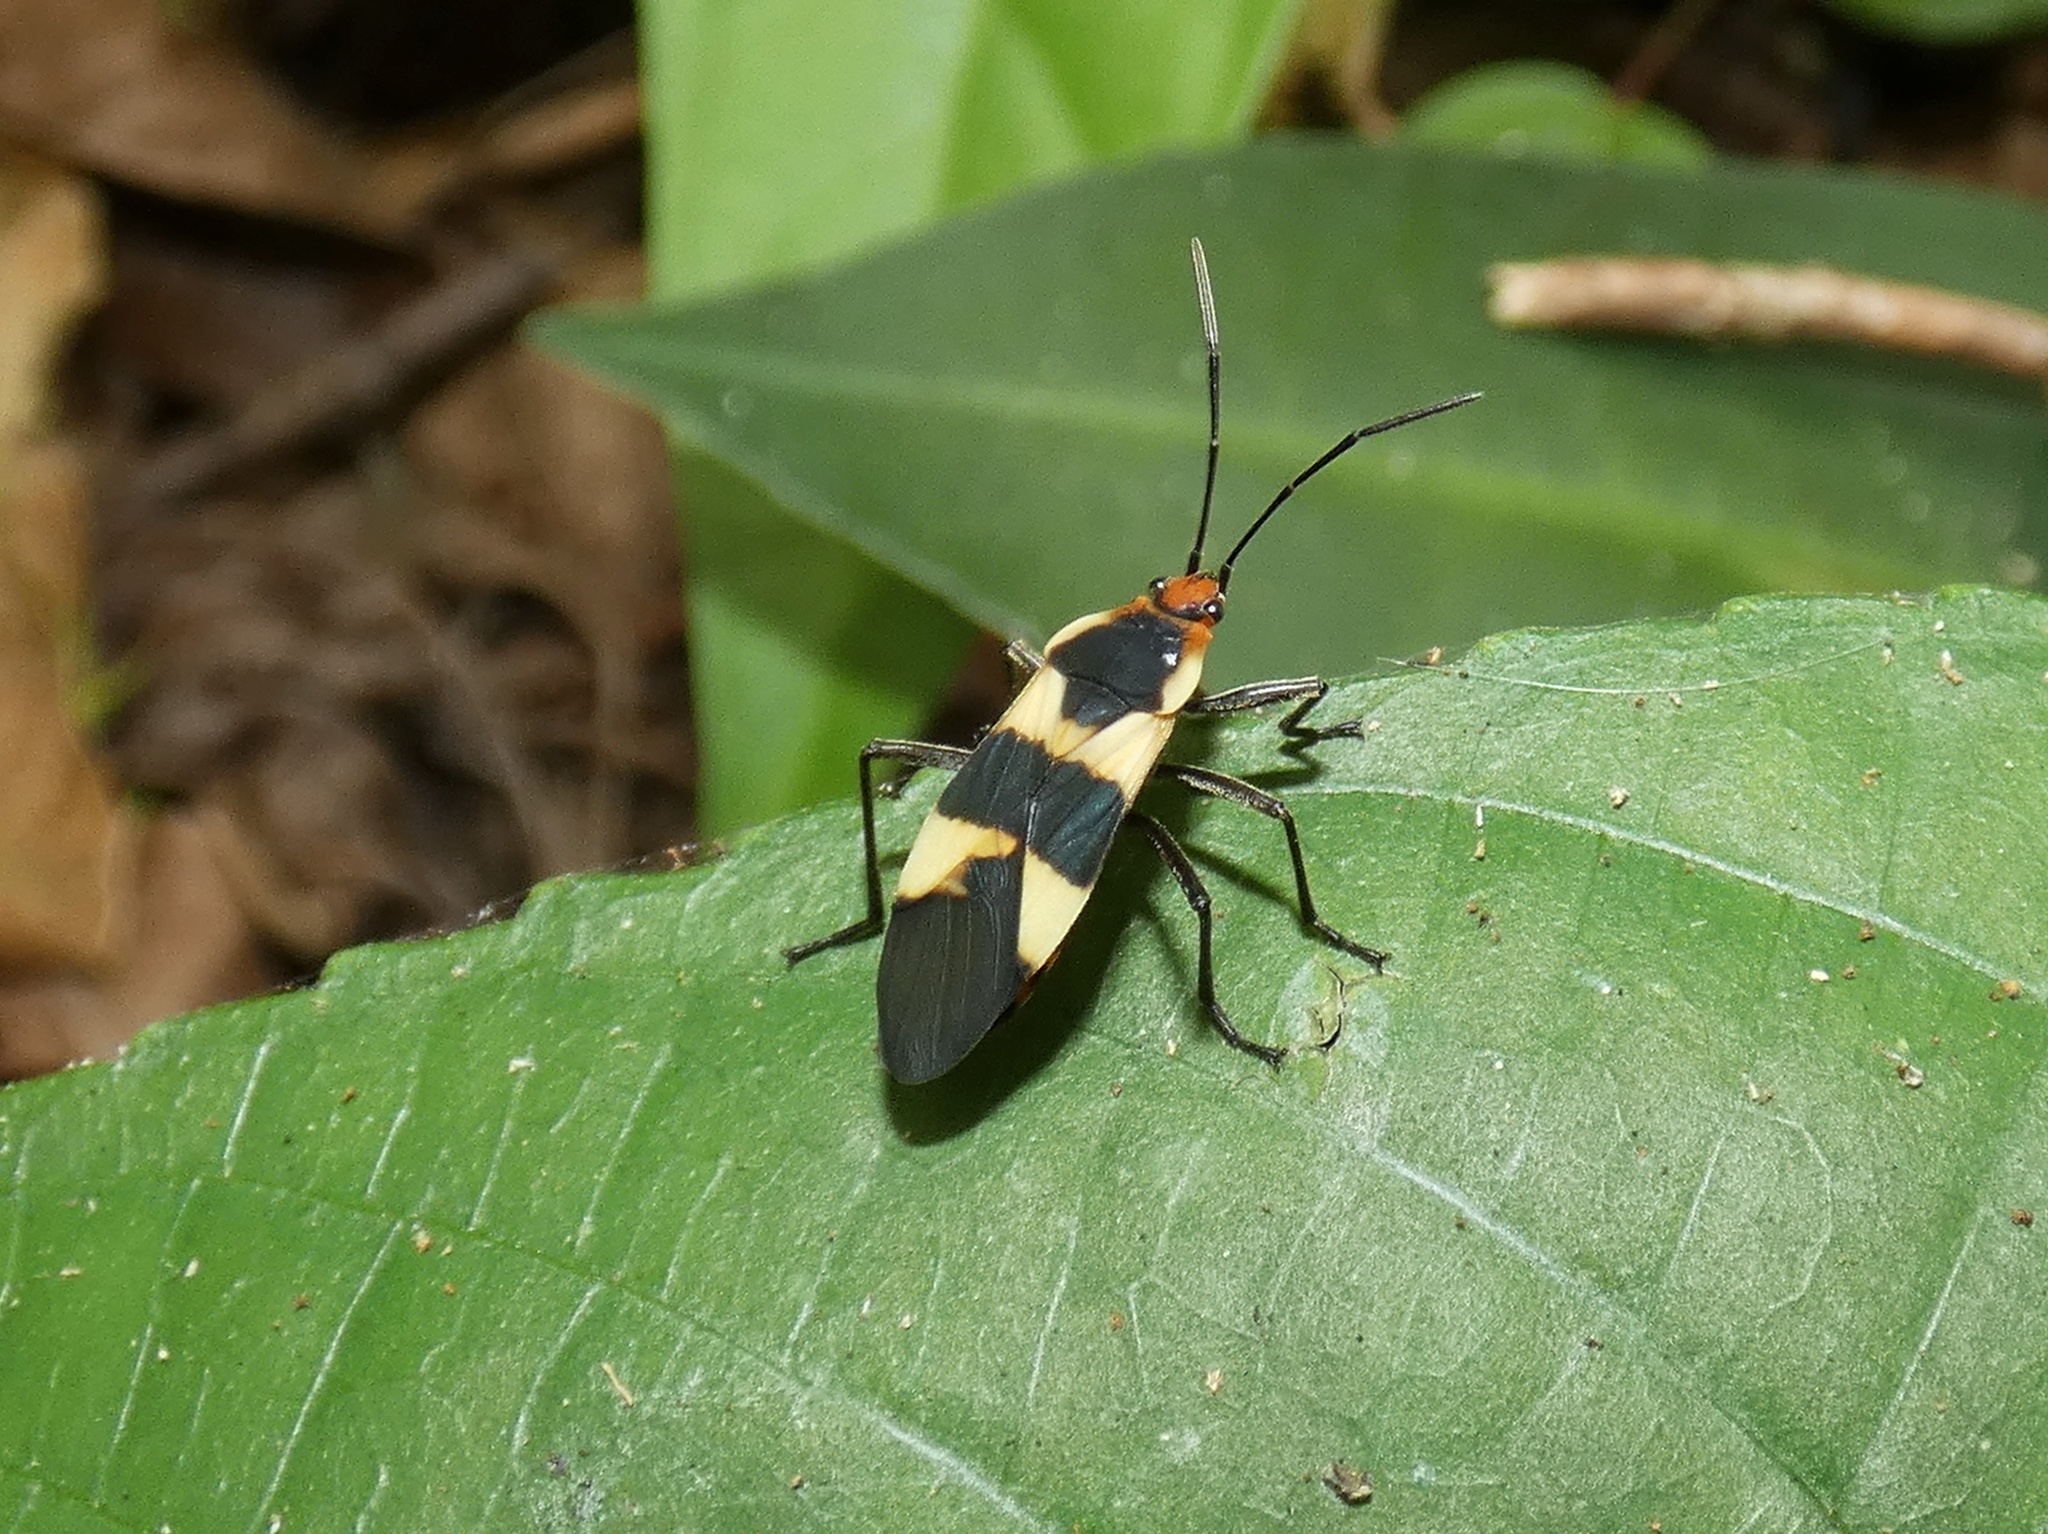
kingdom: Animalia
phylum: Arthropoda
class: Insecta
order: Hemiptera
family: Lygaeidae
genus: Oncopeltus
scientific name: Oncopeltus sandarachatus
